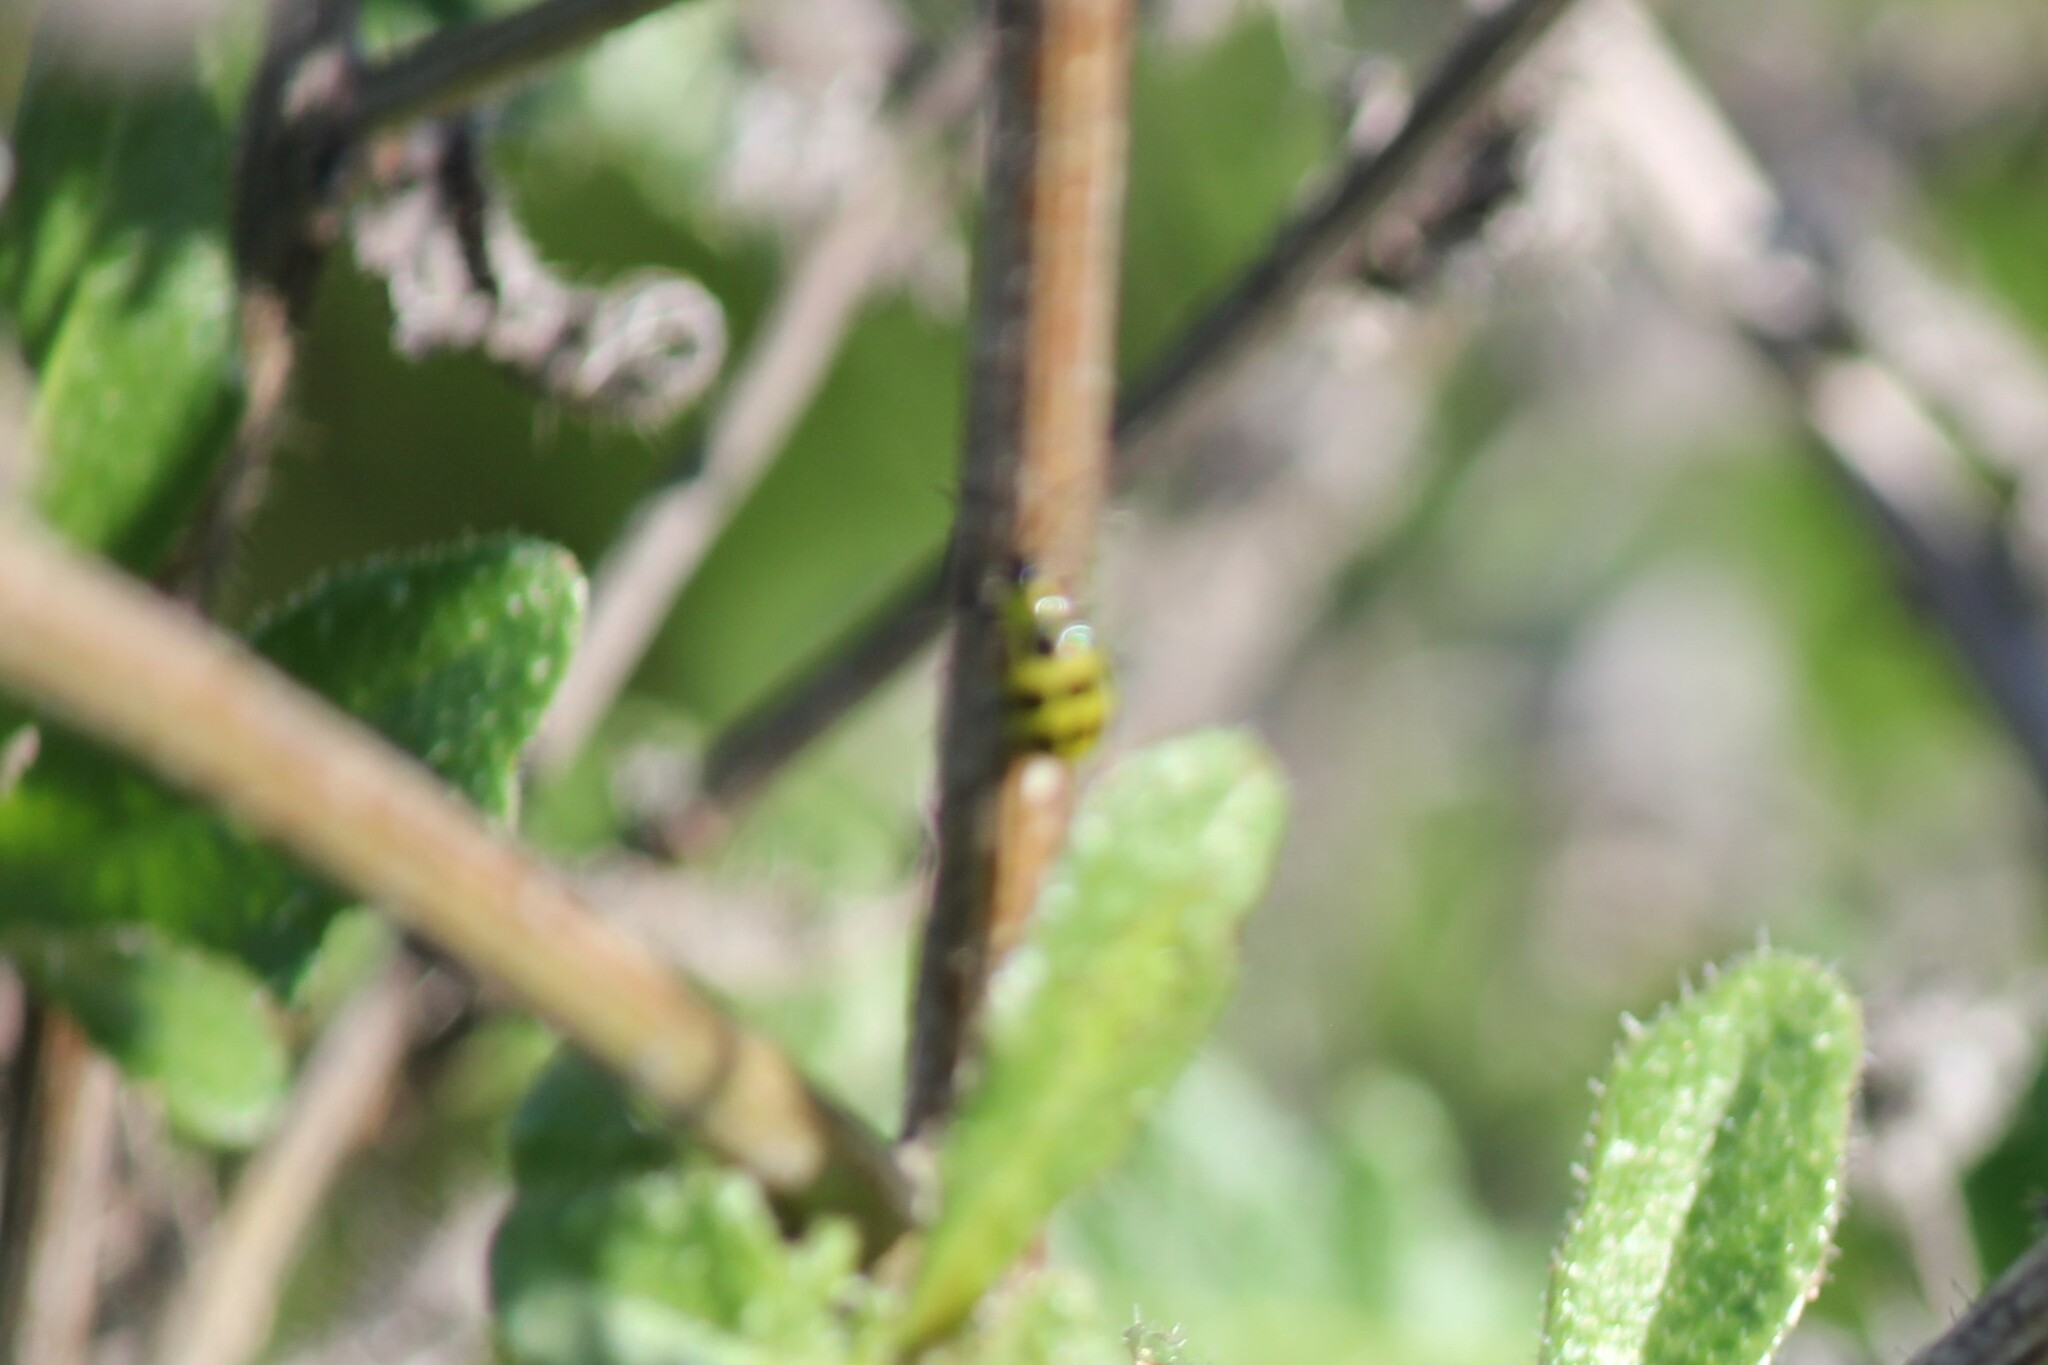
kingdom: Animalia
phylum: Arthropoda
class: Insecta
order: Coleoptera
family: Chrysomelidae
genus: Diabrotica
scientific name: Diabrotica undecimpunctata
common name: Spotted cucumber beetle
